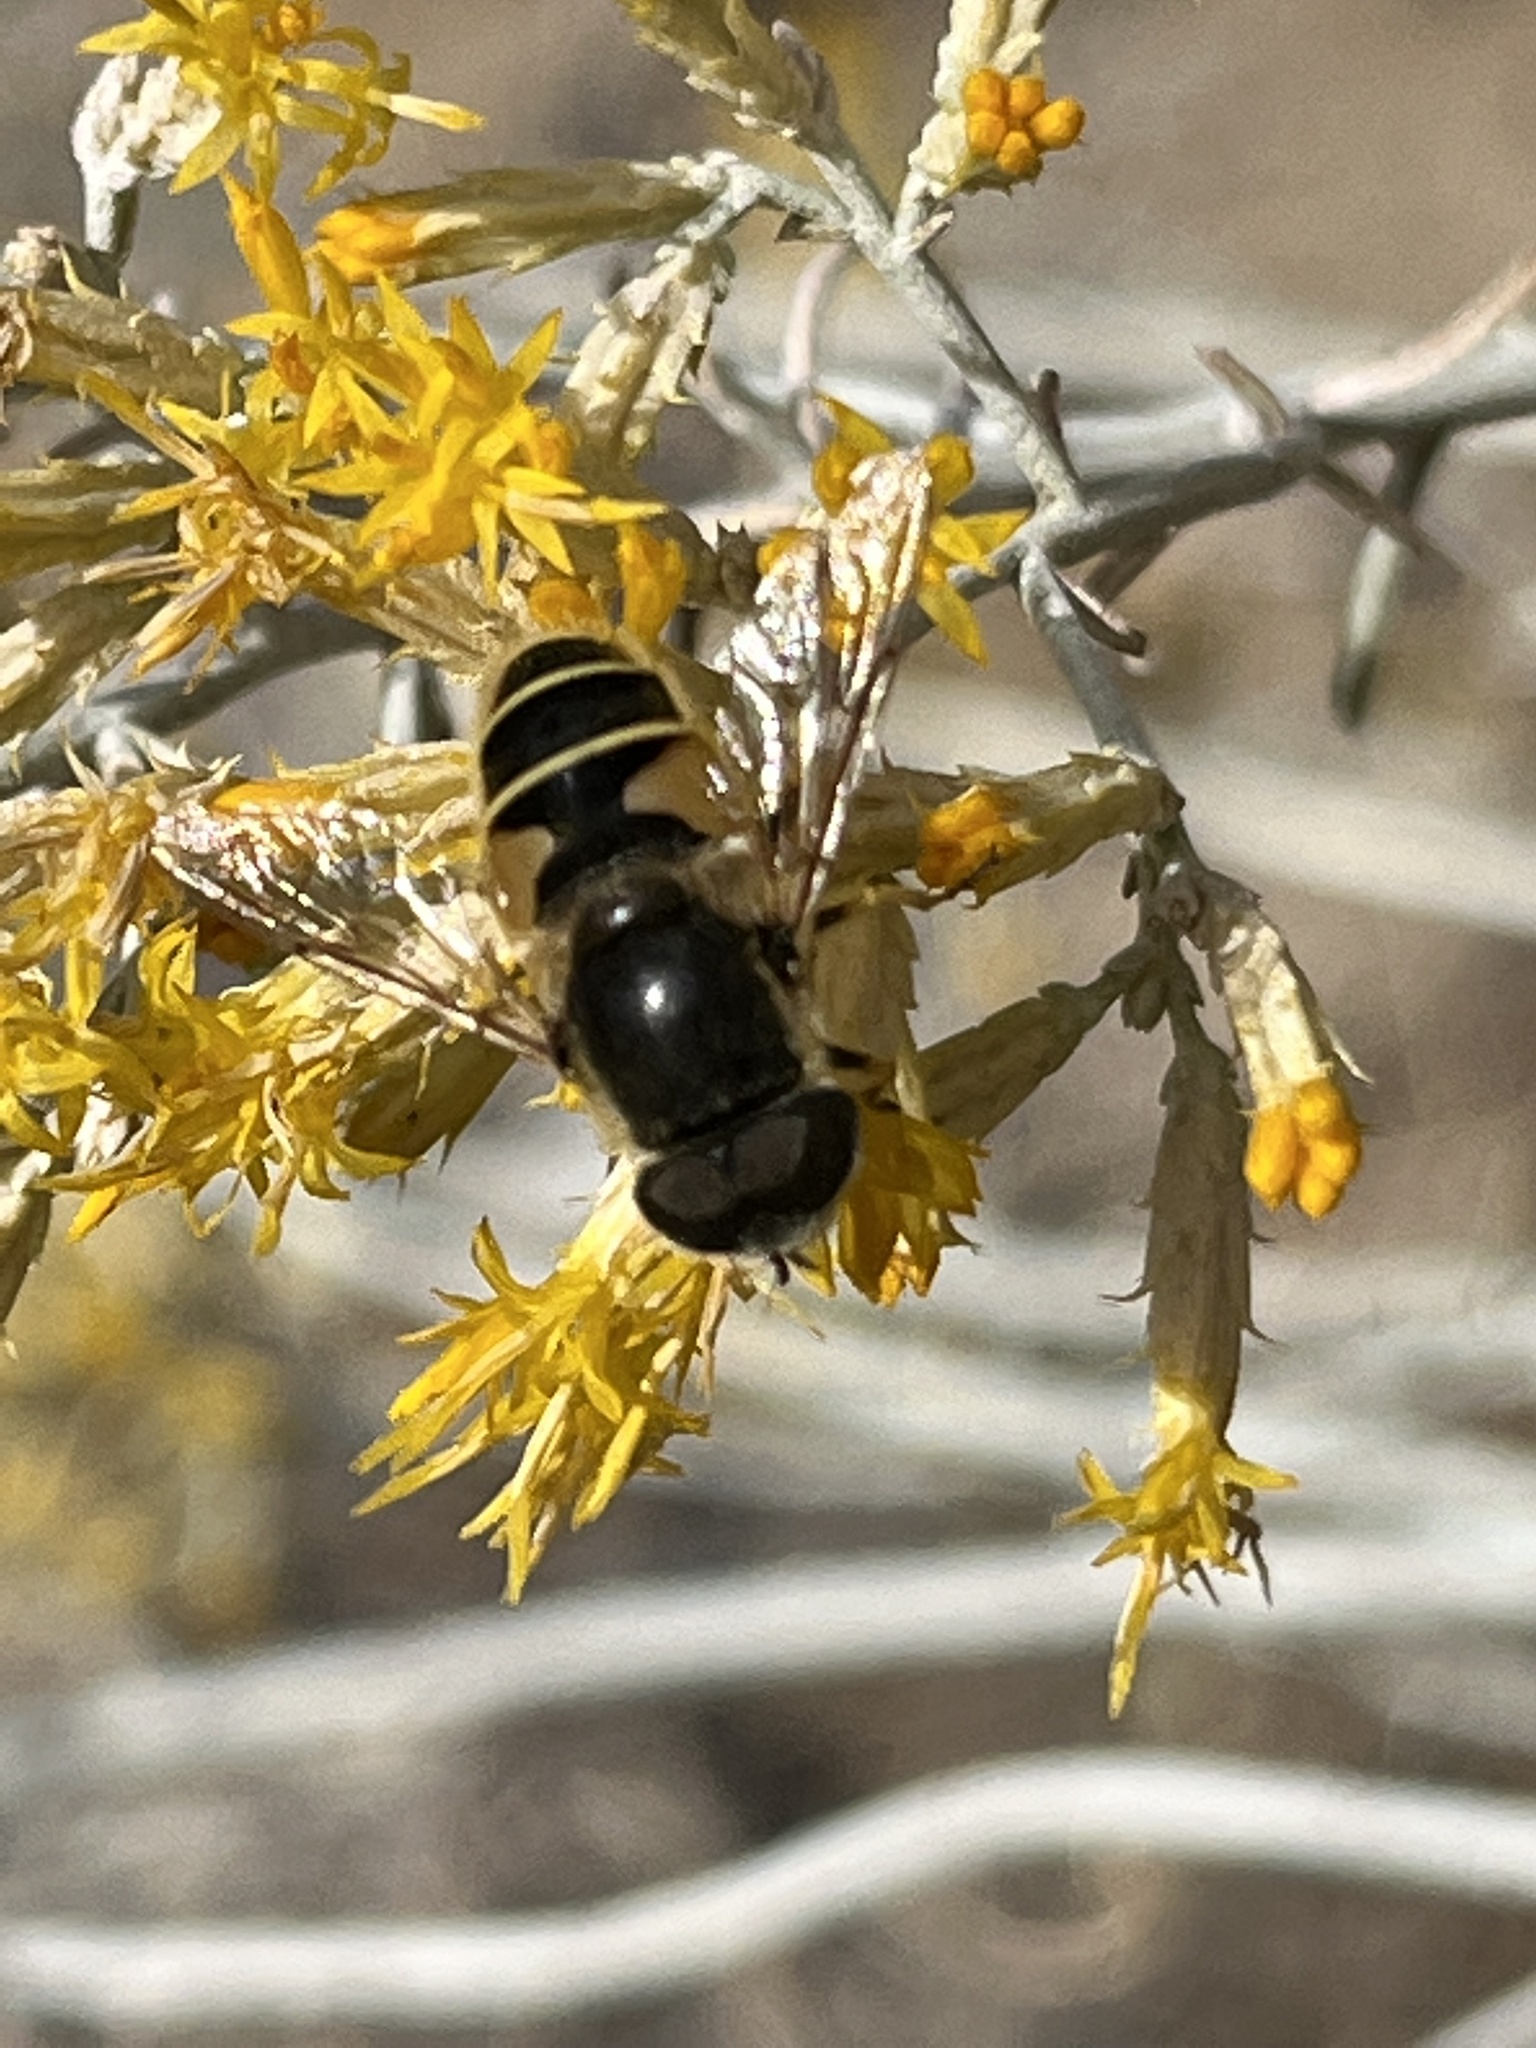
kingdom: Animalia
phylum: Arthropoda
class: Insecta
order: Diptera
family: Syrphidae
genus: Eristalis
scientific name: Eristalis hirta
